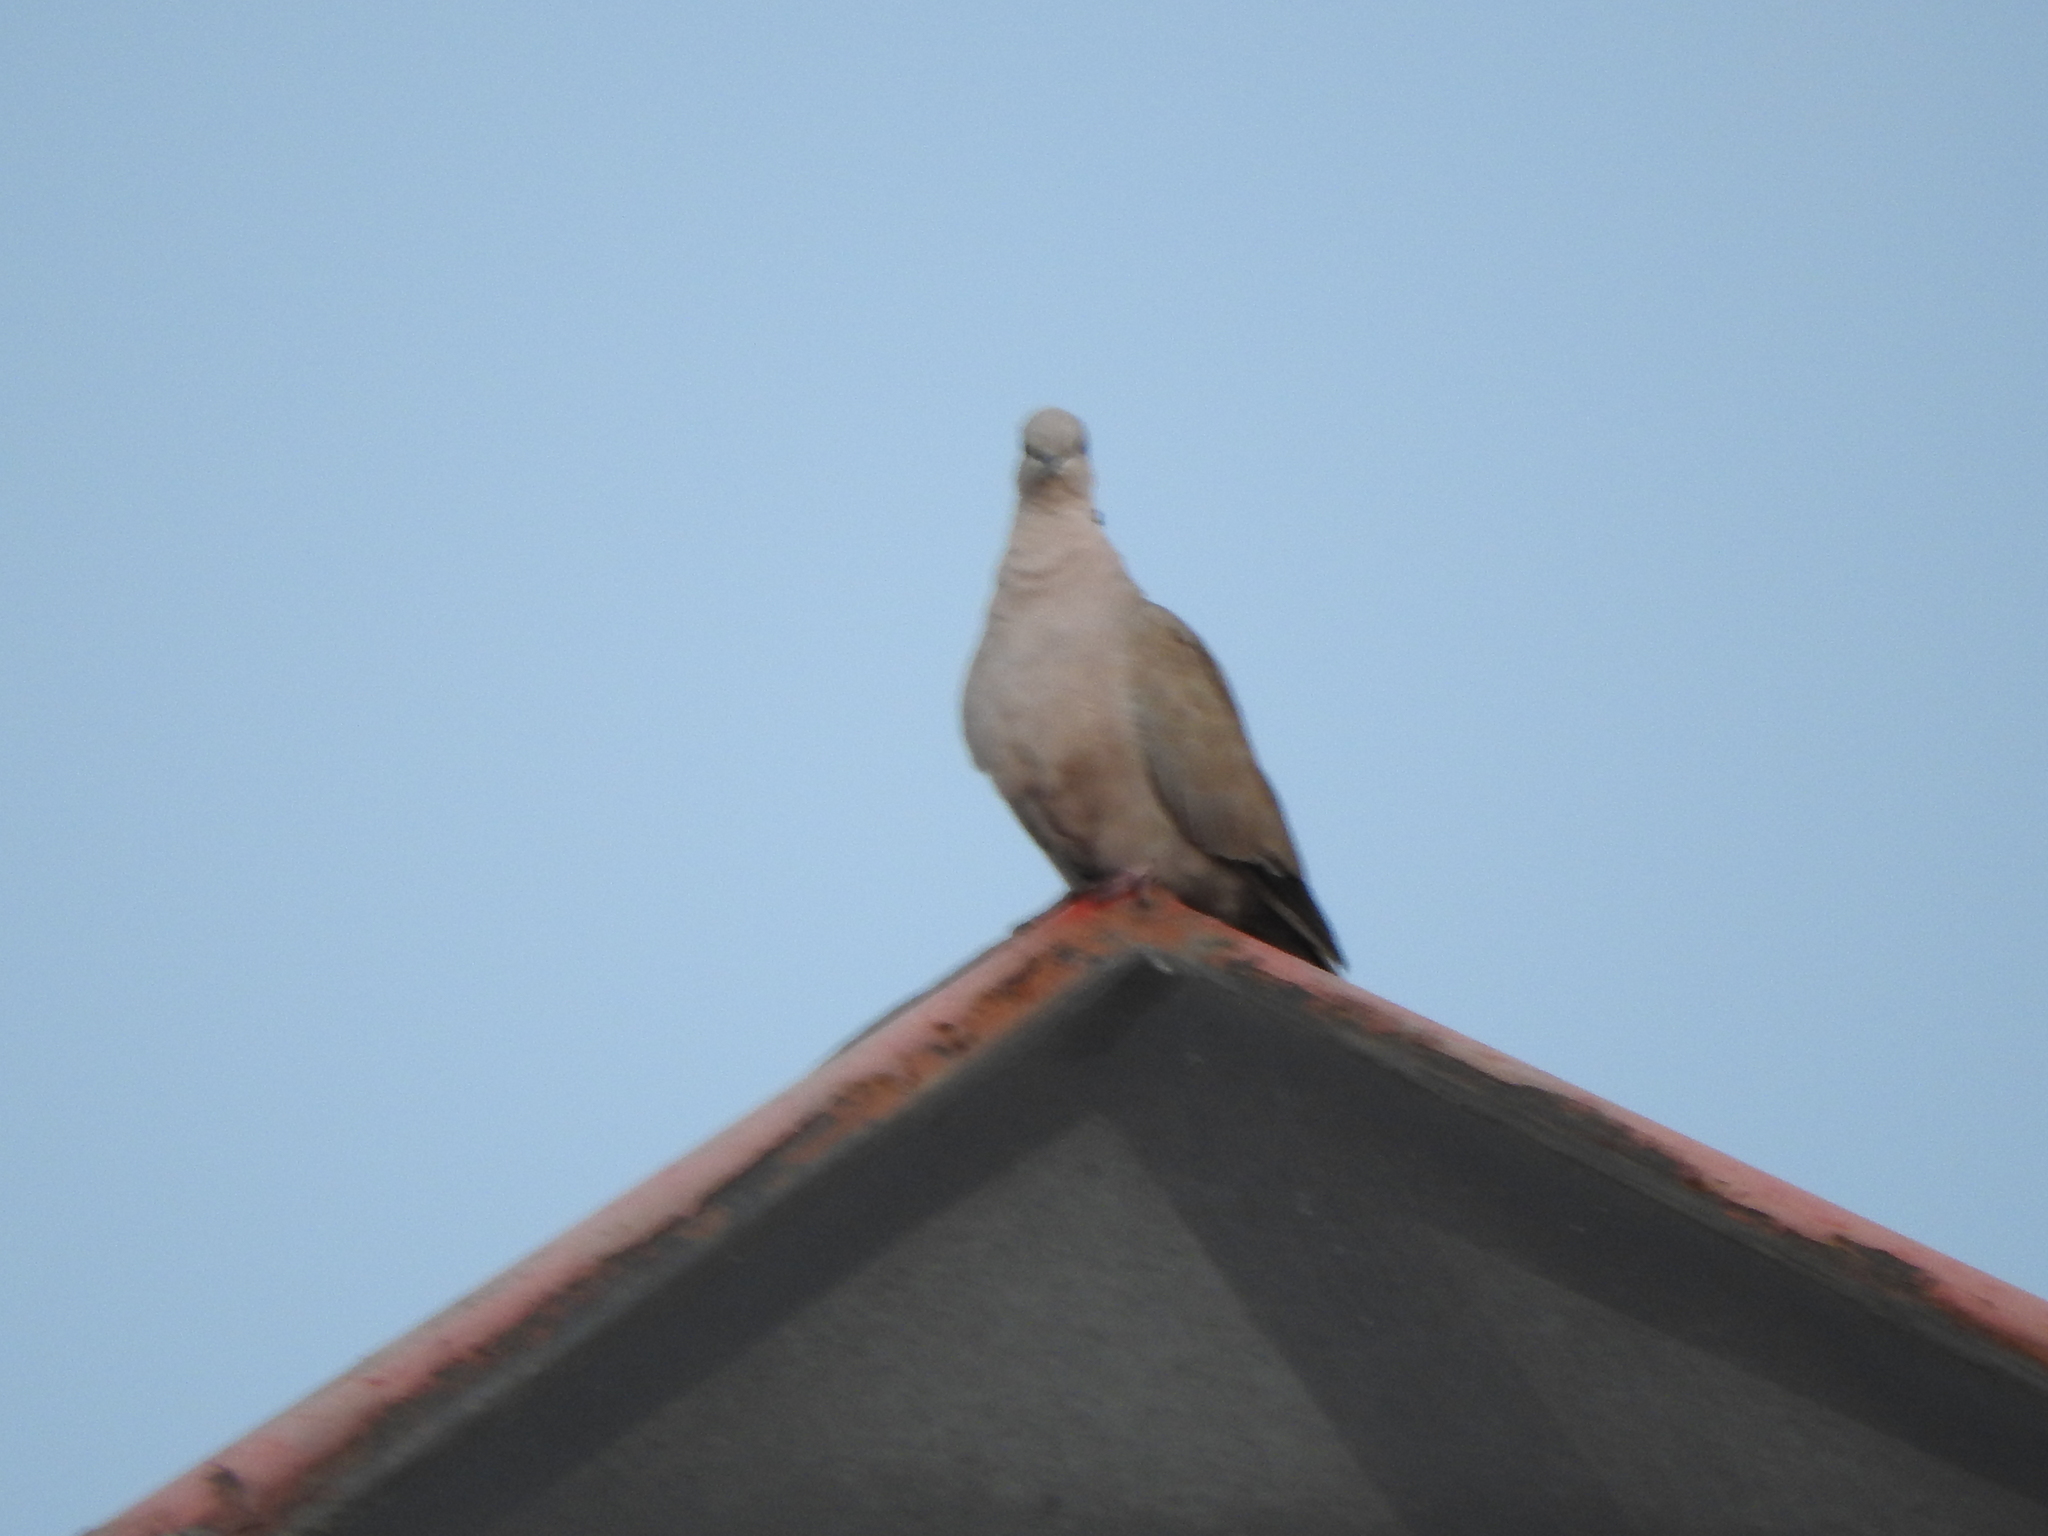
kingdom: Animalia
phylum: Chordata
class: Aves
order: Columbiformes
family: Columbidae
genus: Streptopelia
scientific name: Streptopelia decaocto
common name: Eurasian collared dove
